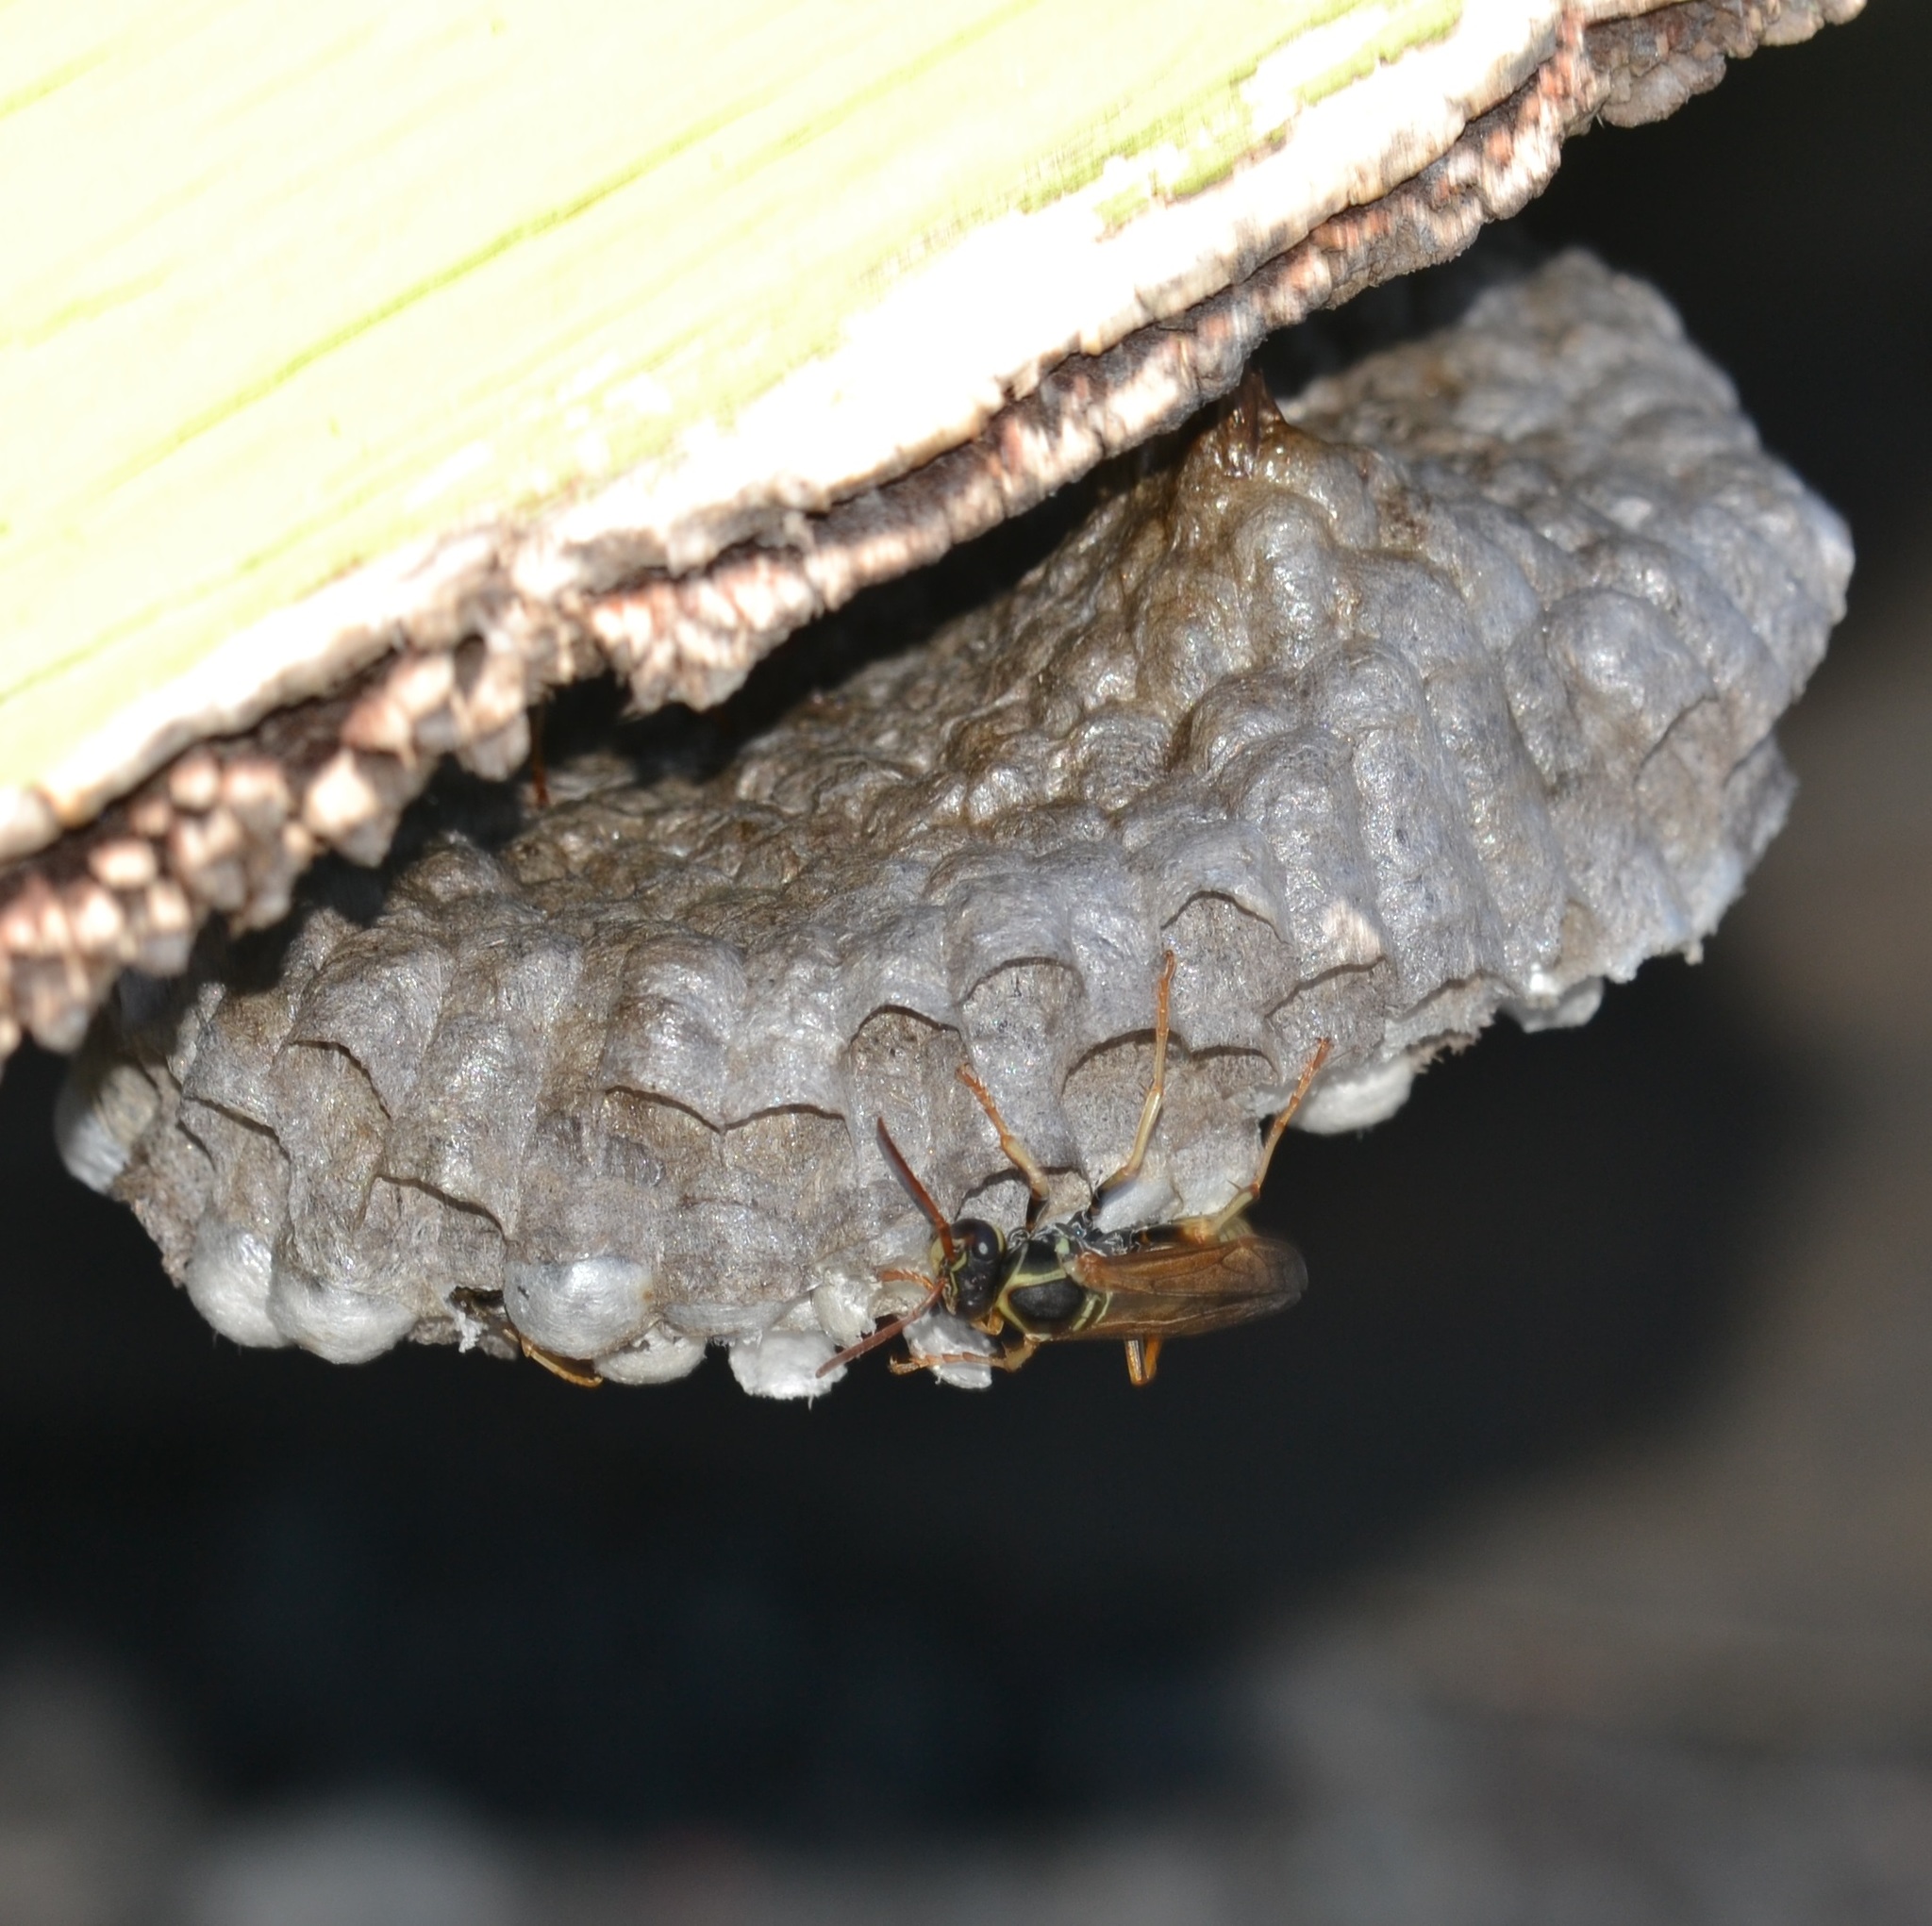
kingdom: Animalia
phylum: Arthropoda
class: Insecta
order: Hymenoptera
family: Eumenidae
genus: Polistes
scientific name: Polistes aurifer
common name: Paper wasp
